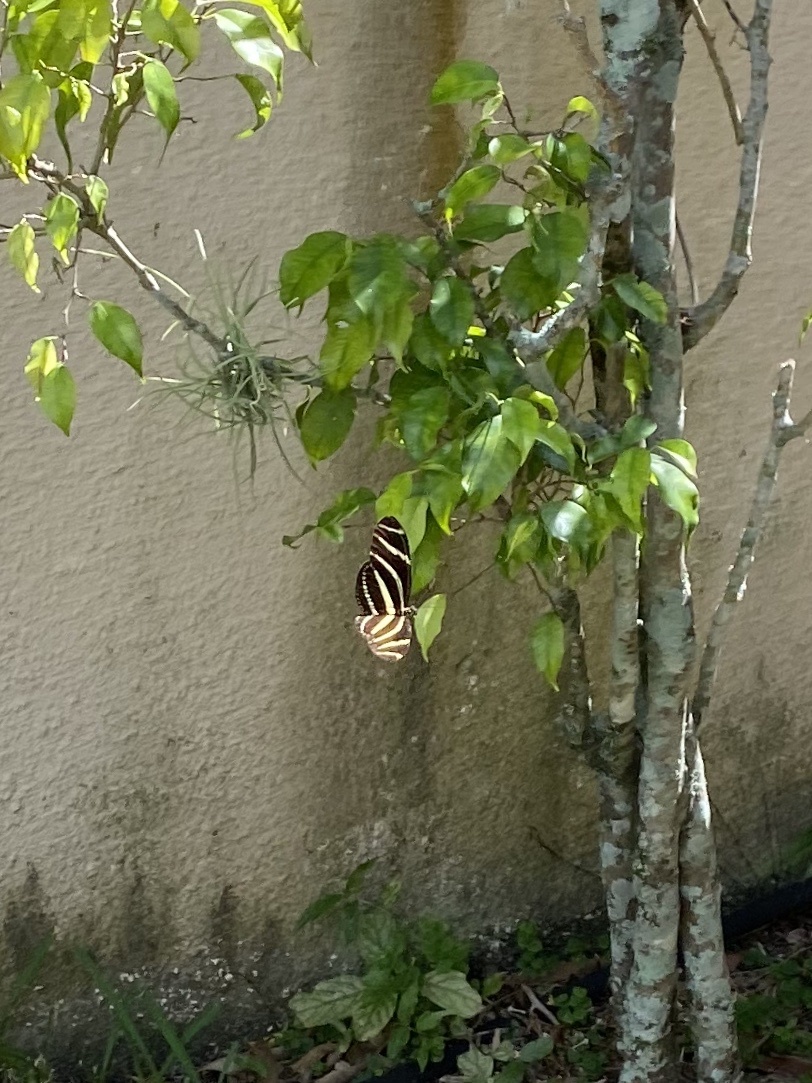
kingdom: Animalia
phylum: Arthropoda
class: Insecta
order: Lepidoptera
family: Nymphalidae
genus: Heliconius
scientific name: Heliconius charithonia
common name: Zebra long wing
